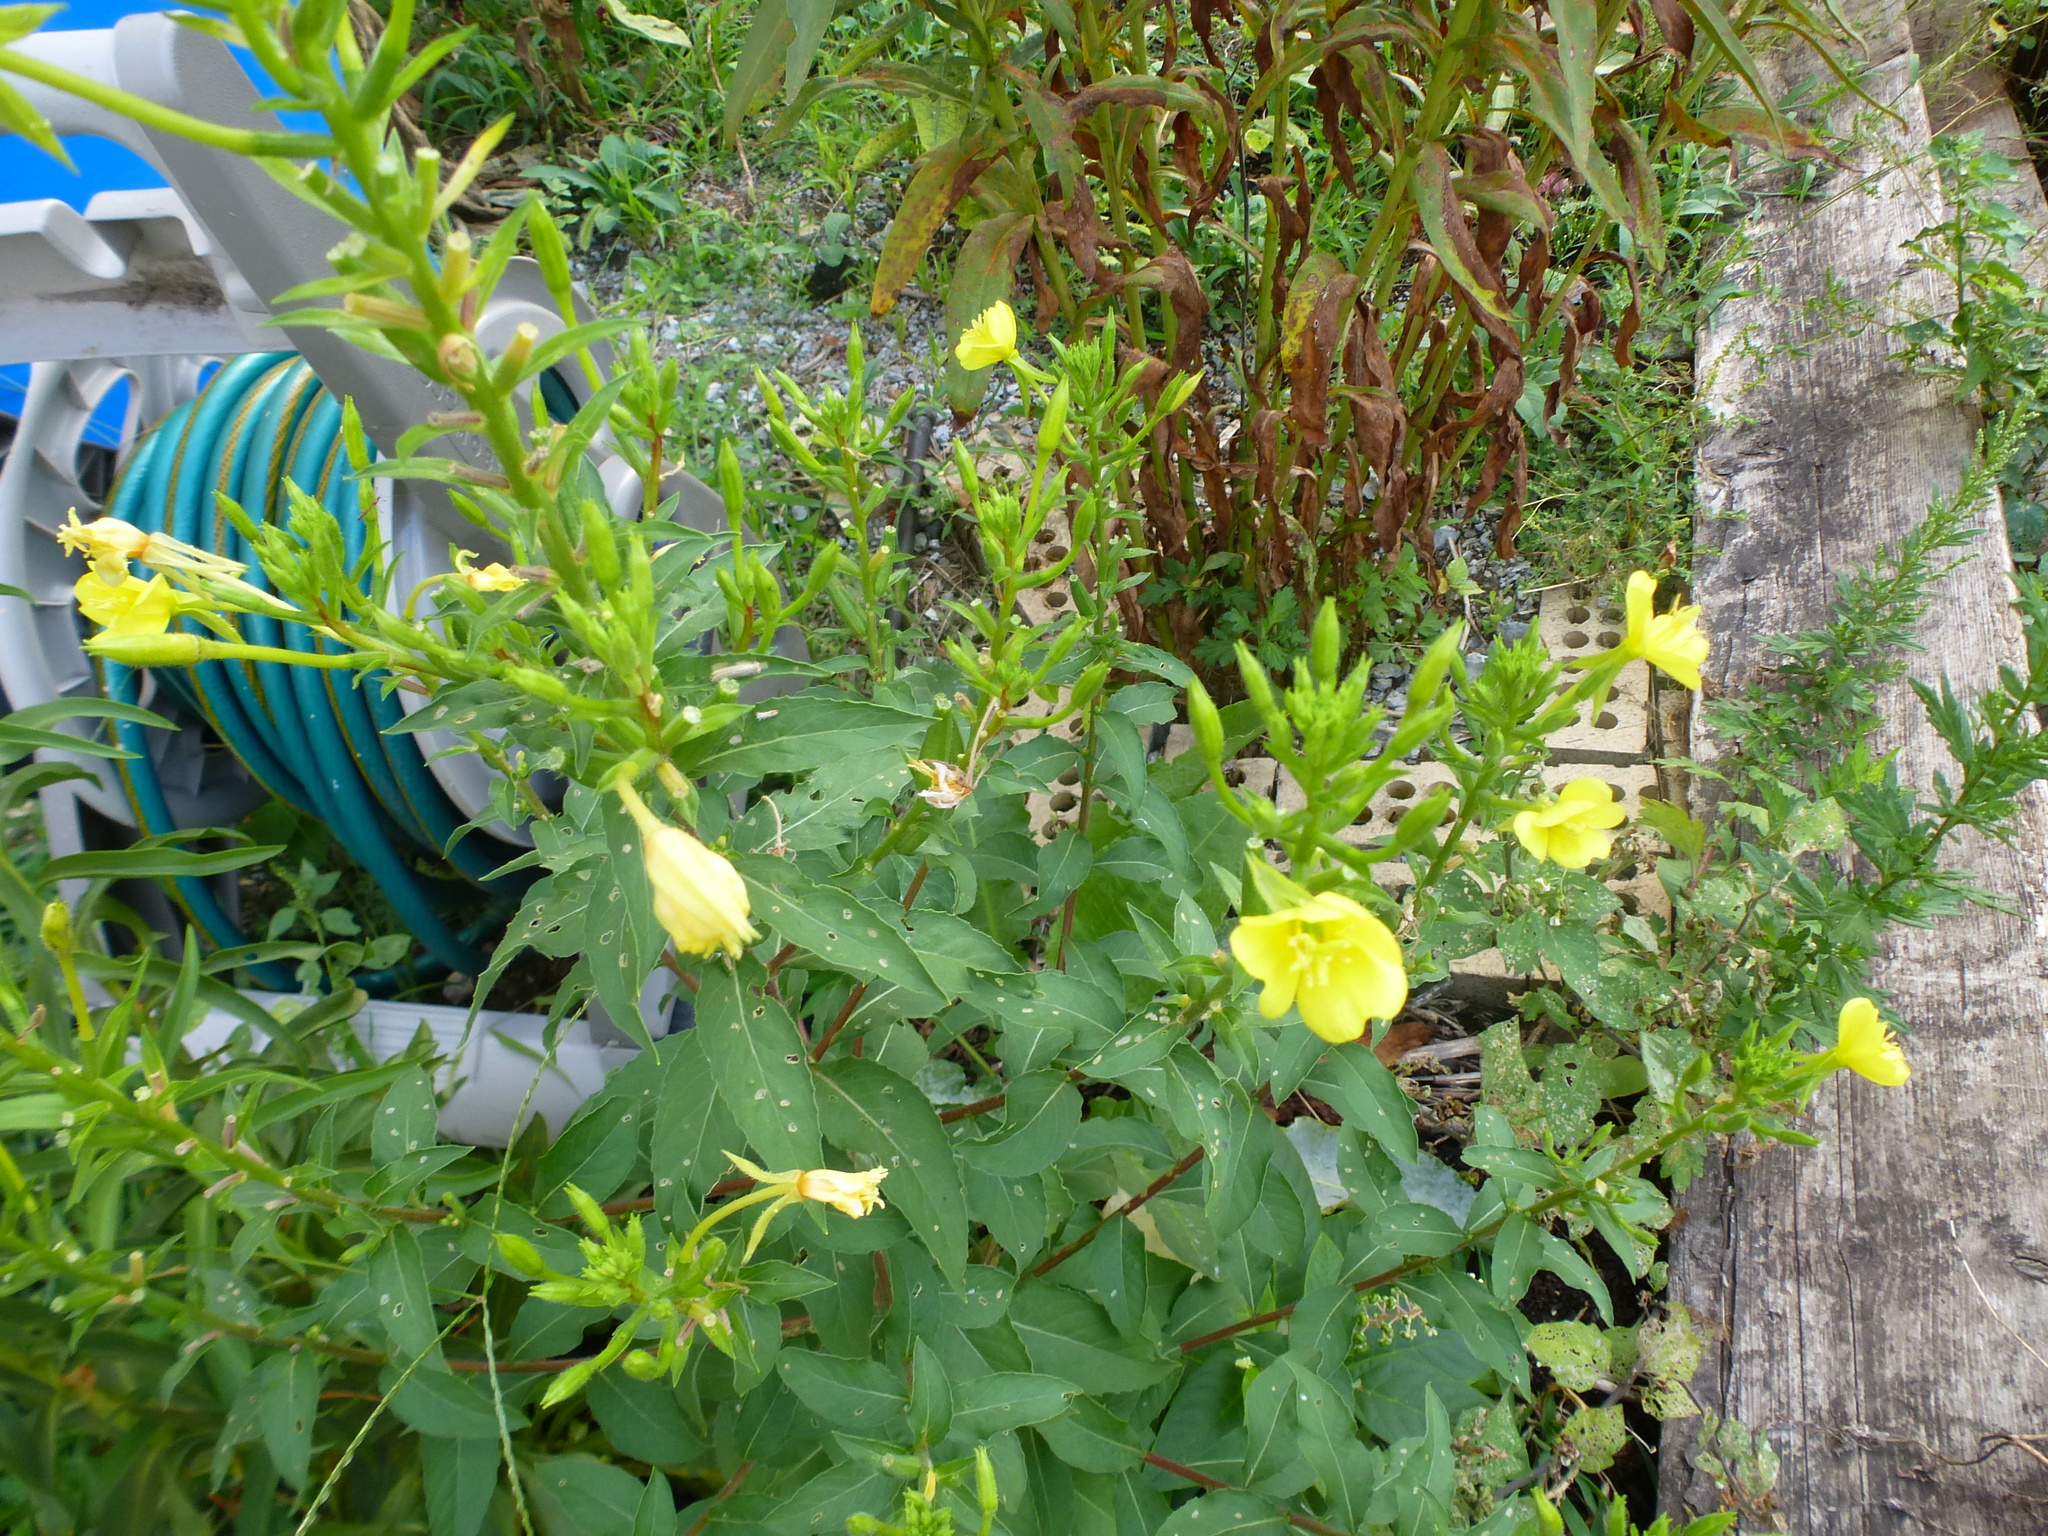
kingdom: Plantae
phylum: Tracheophyta
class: Magnoliopsida
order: Myrtales
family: Onagraceae
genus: Oenothera
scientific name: Oenothera biennis
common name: Common evening-primrose
